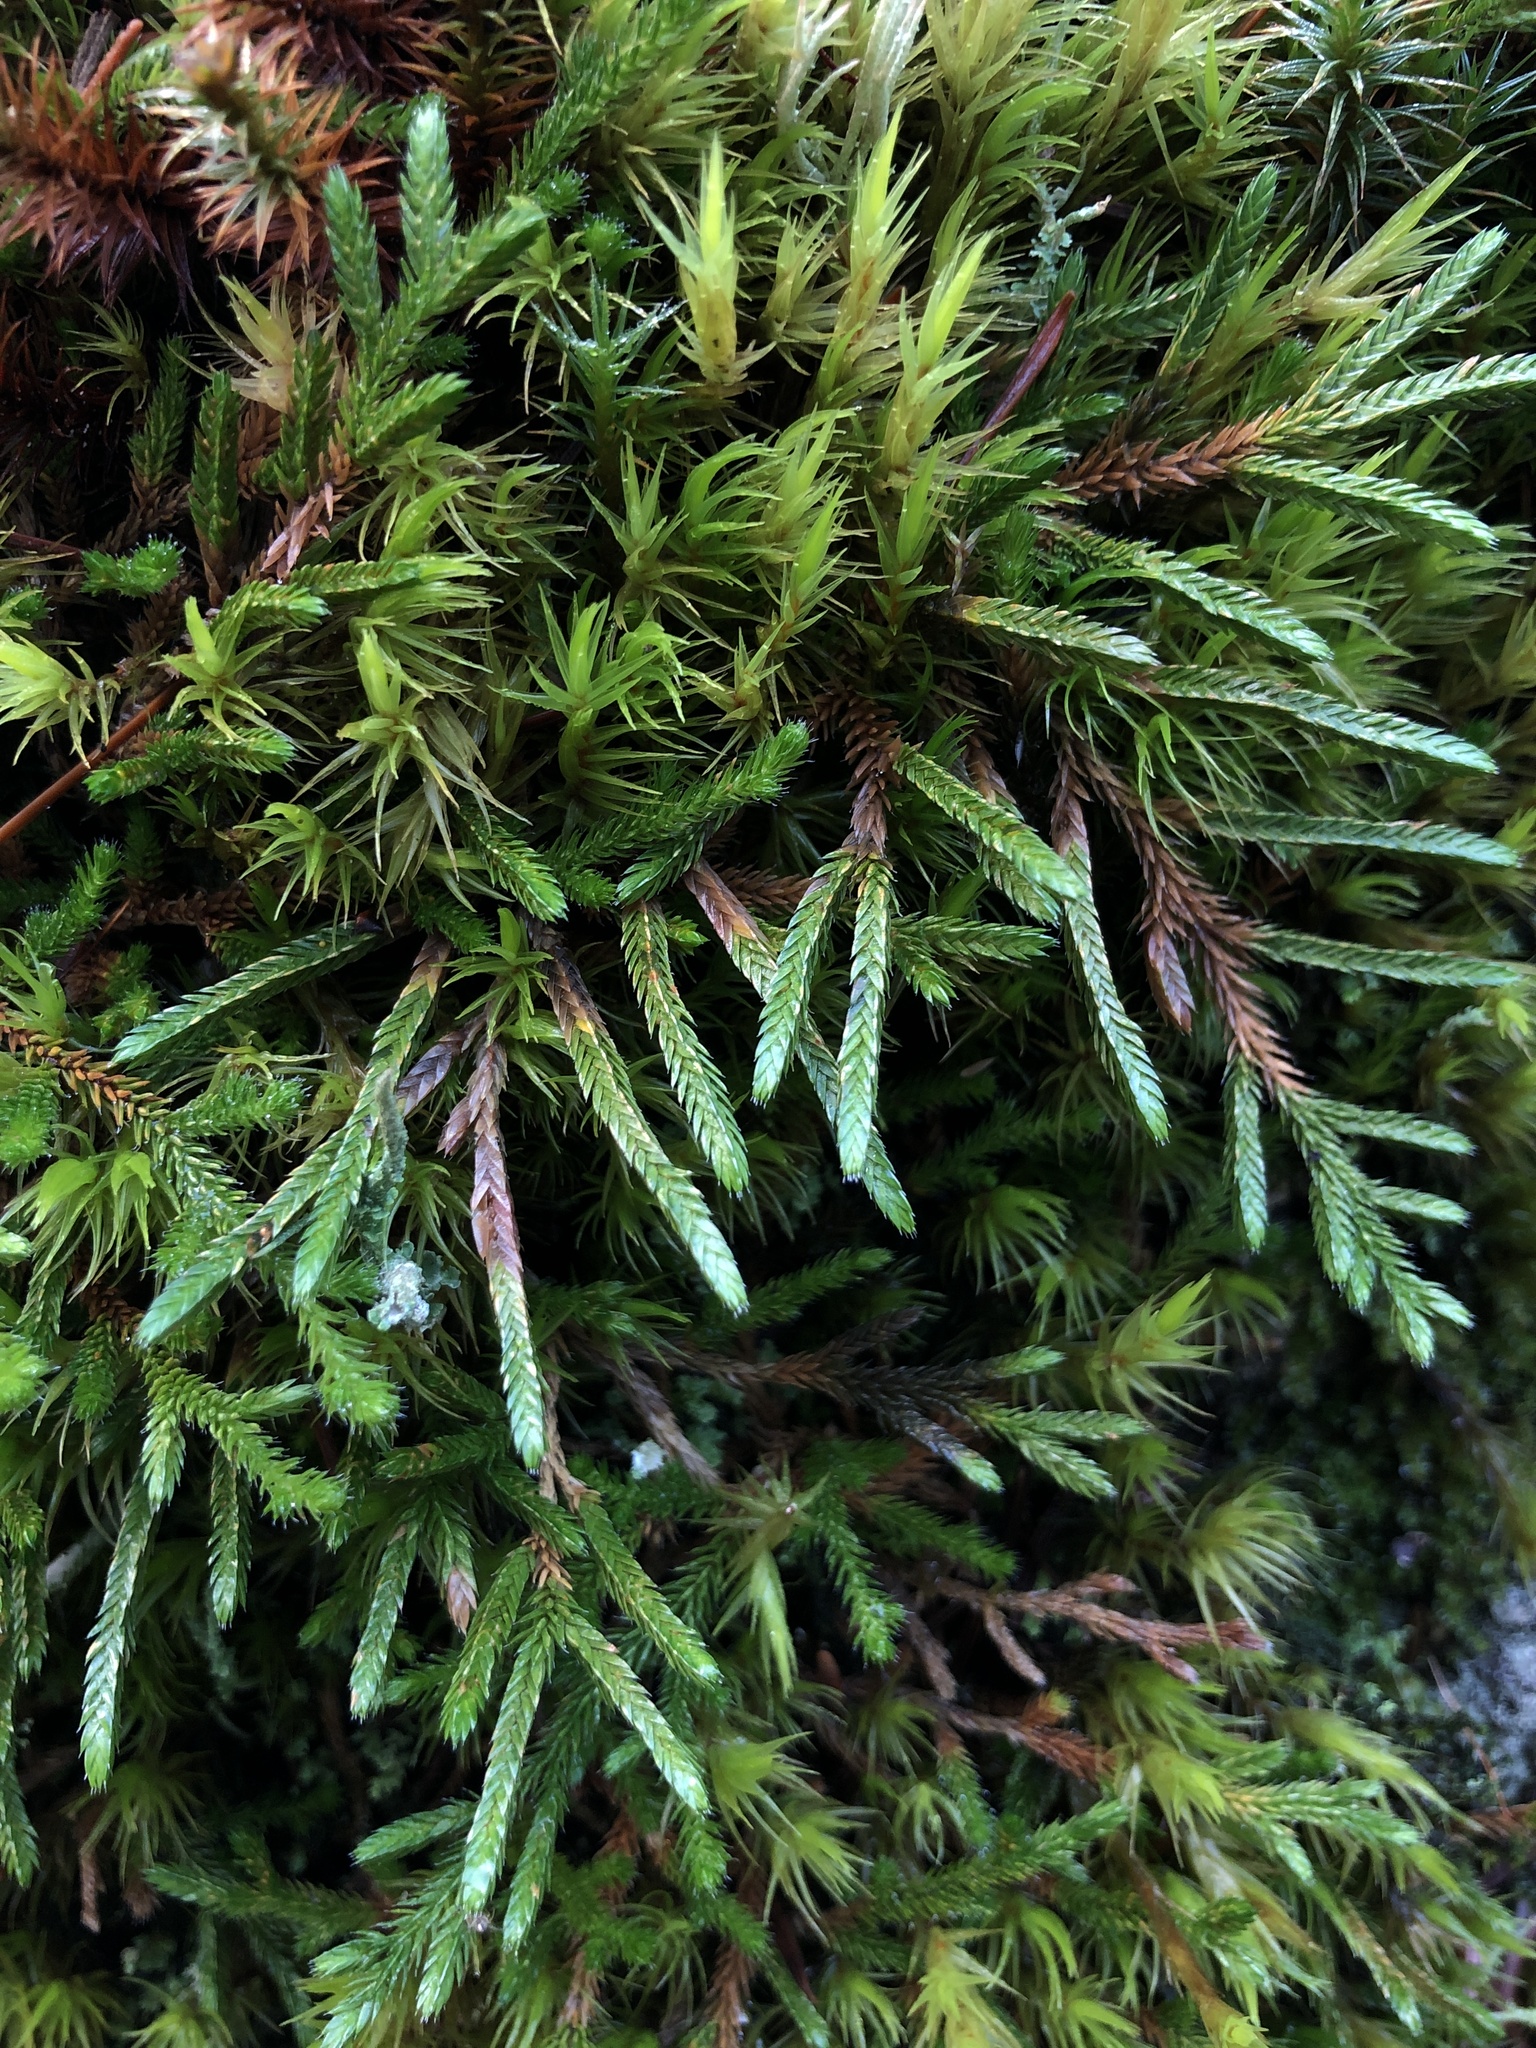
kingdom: Plantae
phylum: Tracheophyta
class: Lycopodiopsida
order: Selaginellales
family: Selaginellaceae
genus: Selaginella
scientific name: Selaginella wallacei
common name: Wallace's selaginella
